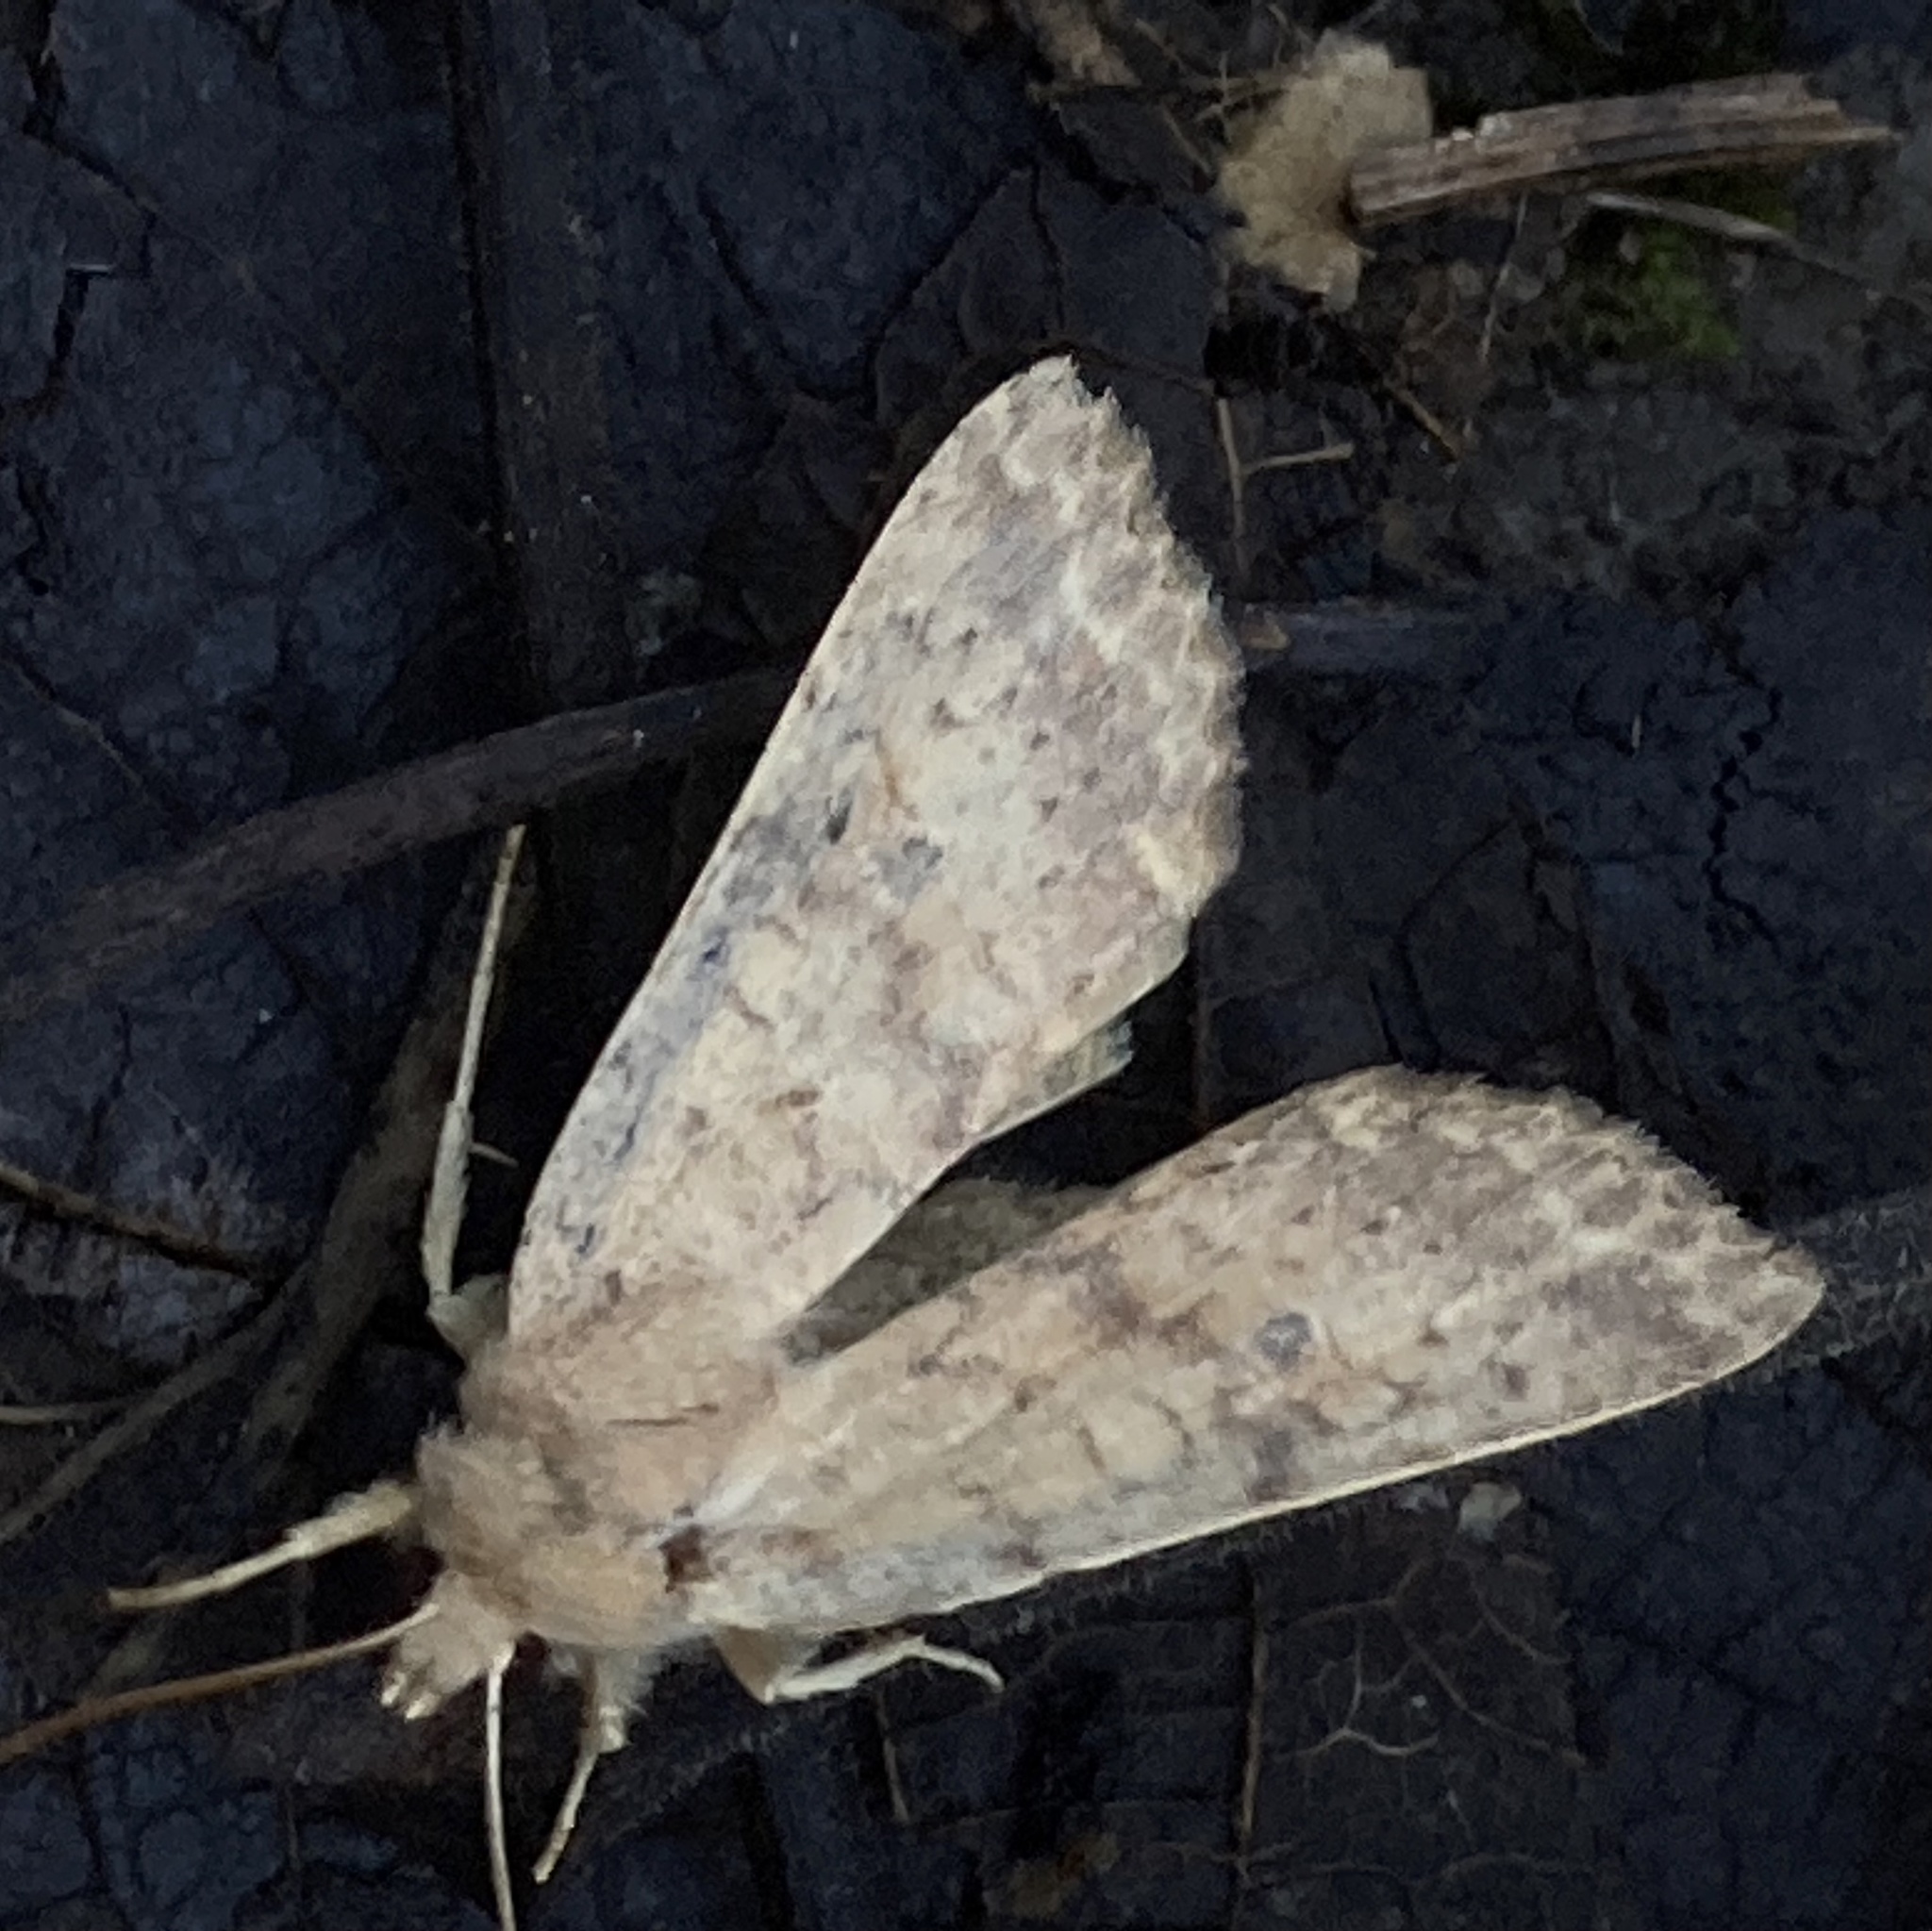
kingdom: Animalia
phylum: Arthropoda
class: Insecta
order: Lepidoptera
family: Noctuidae
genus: Agrochola
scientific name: Agrochola bicolorago
